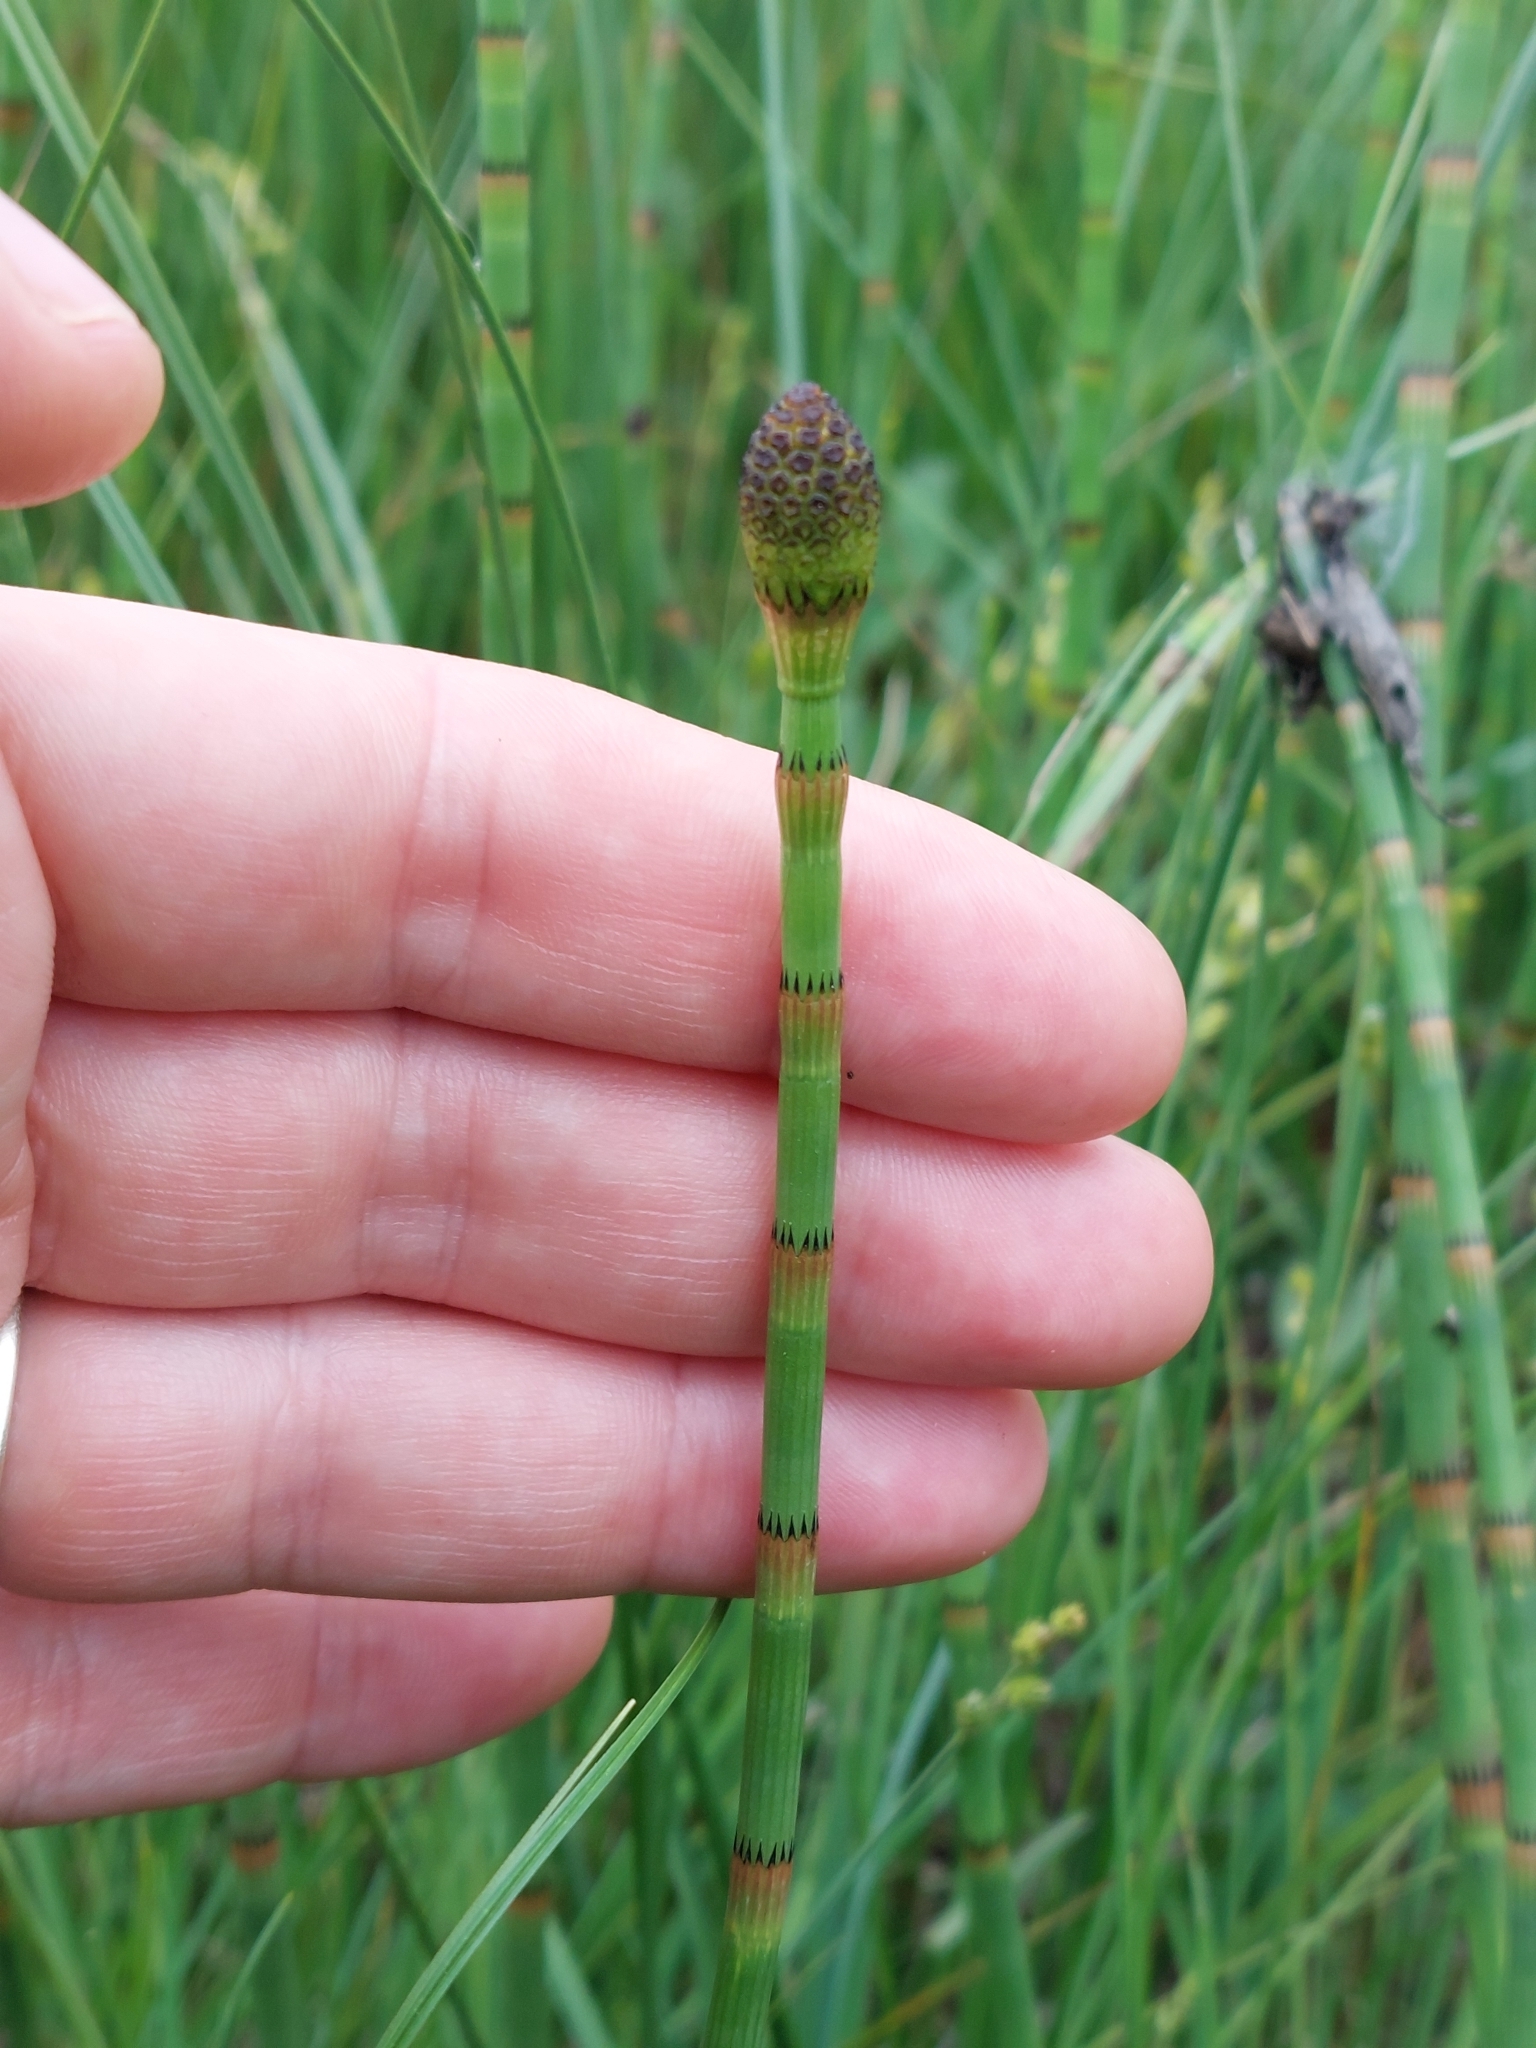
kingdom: Plantae
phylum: Tracheophyta
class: Polypodiopsida
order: Equisetales
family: Equisetaceae
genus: Equisetum
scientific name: Equisetum fluviatile
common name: Water horsetail
